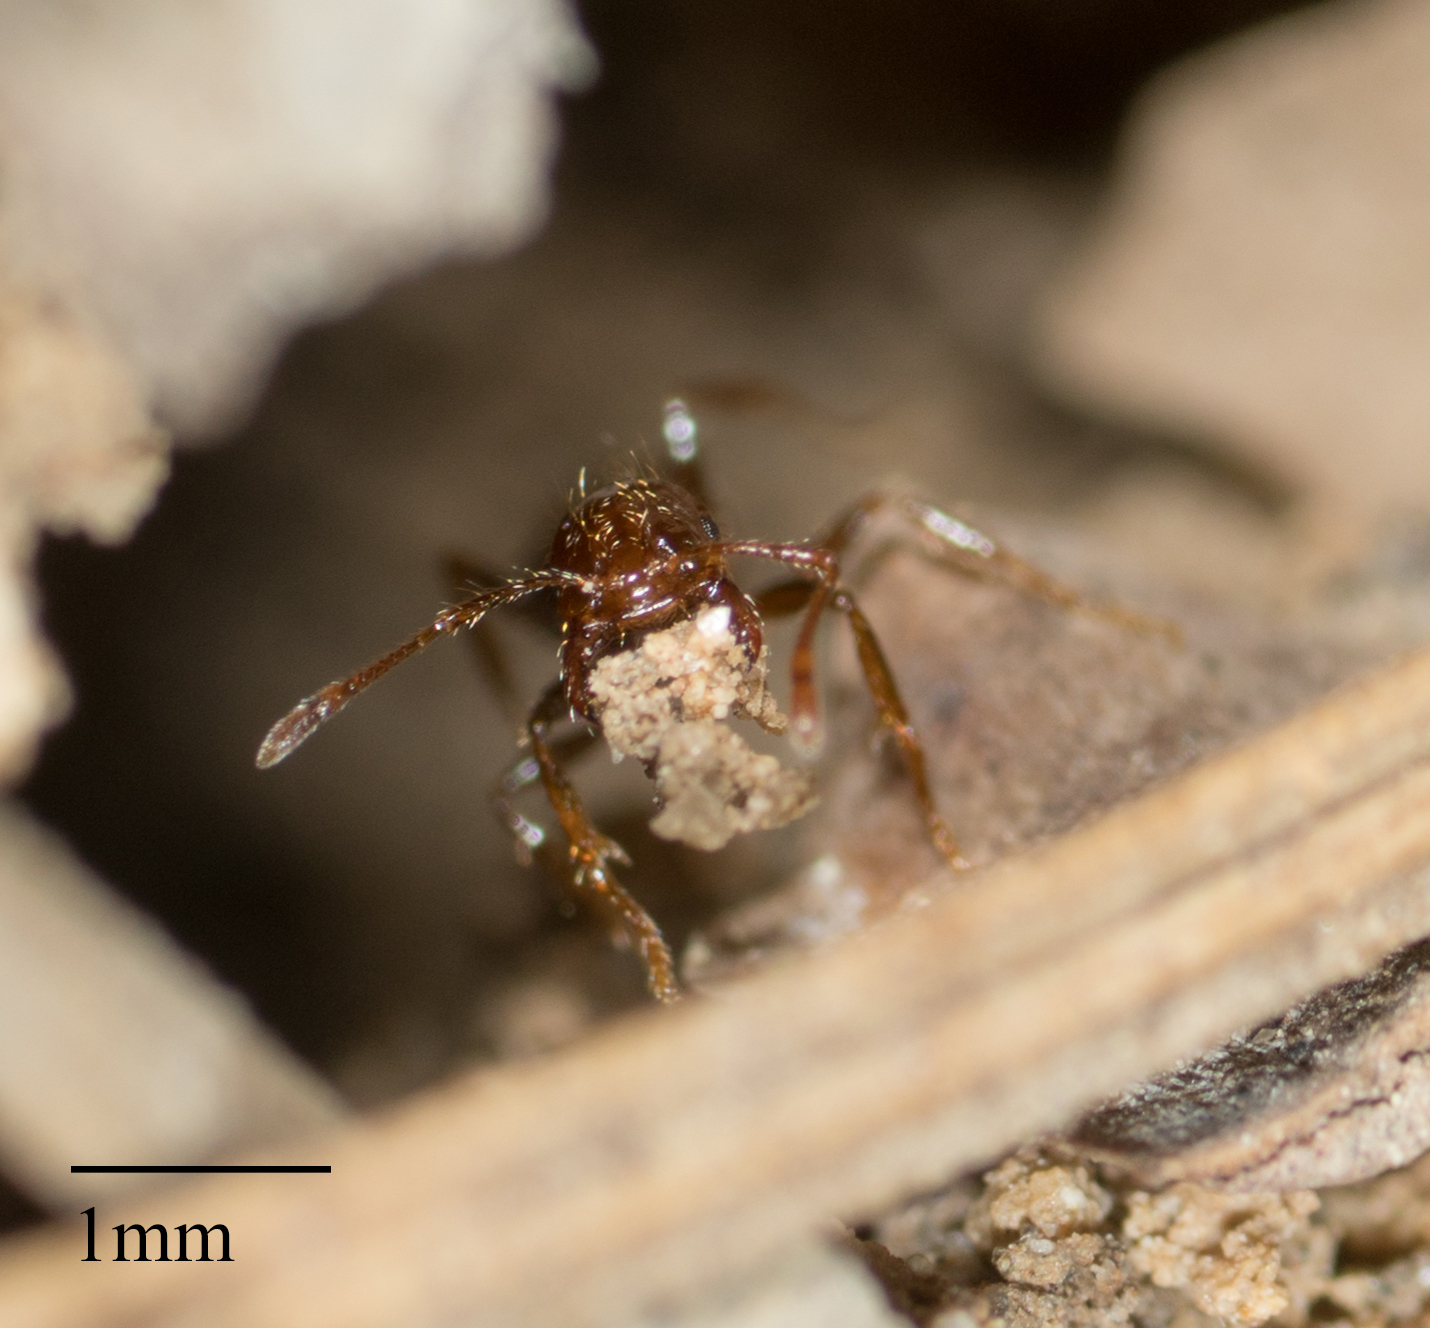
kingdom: Animalia
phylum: Arthropoda
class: Insecta
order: Hymenoptera
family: Formicidae
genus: Solenopsis
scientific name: Solenopsis invicta
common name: Red imported fire ant
